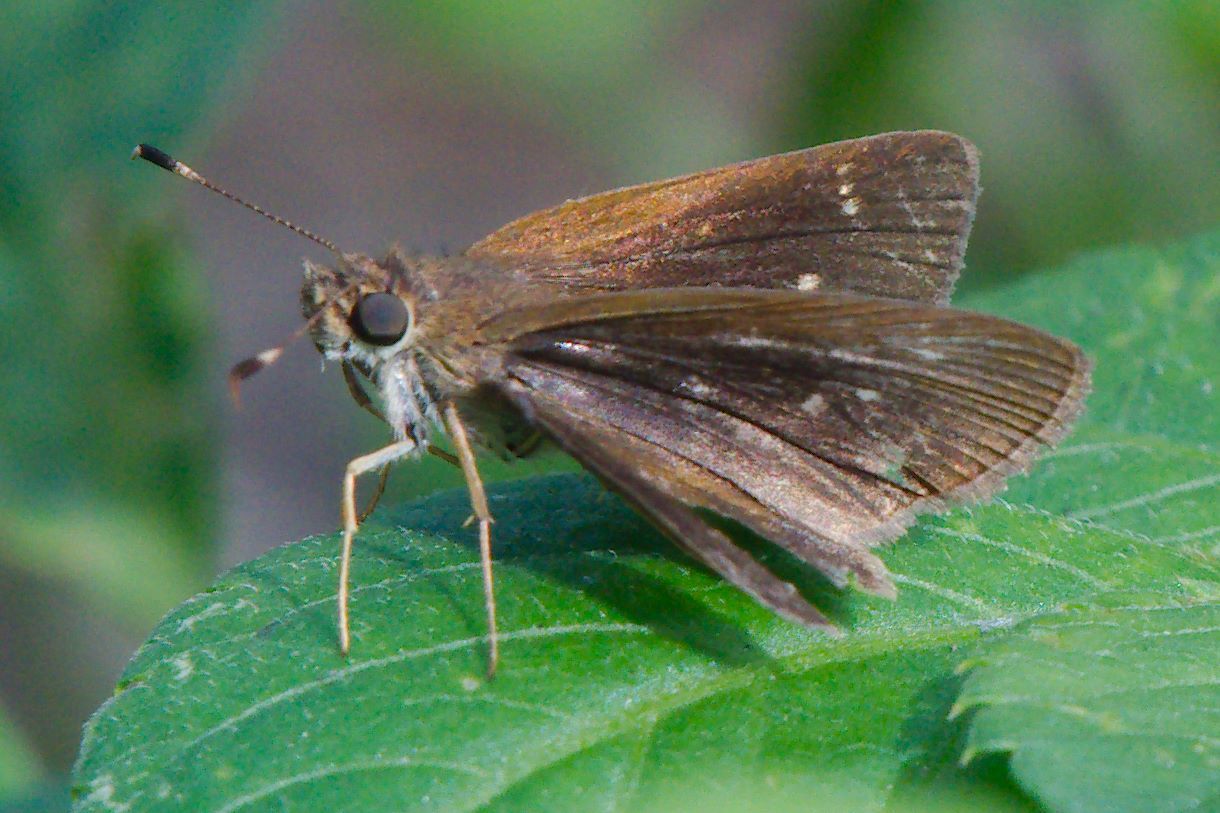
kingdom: Animalia
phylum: Arthropoda
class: Insecta
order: Lepidoptera
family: Hesperiidae
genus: Cymaenes
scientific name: Cymaenes tripunctus
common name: Dingy dotted skipper
